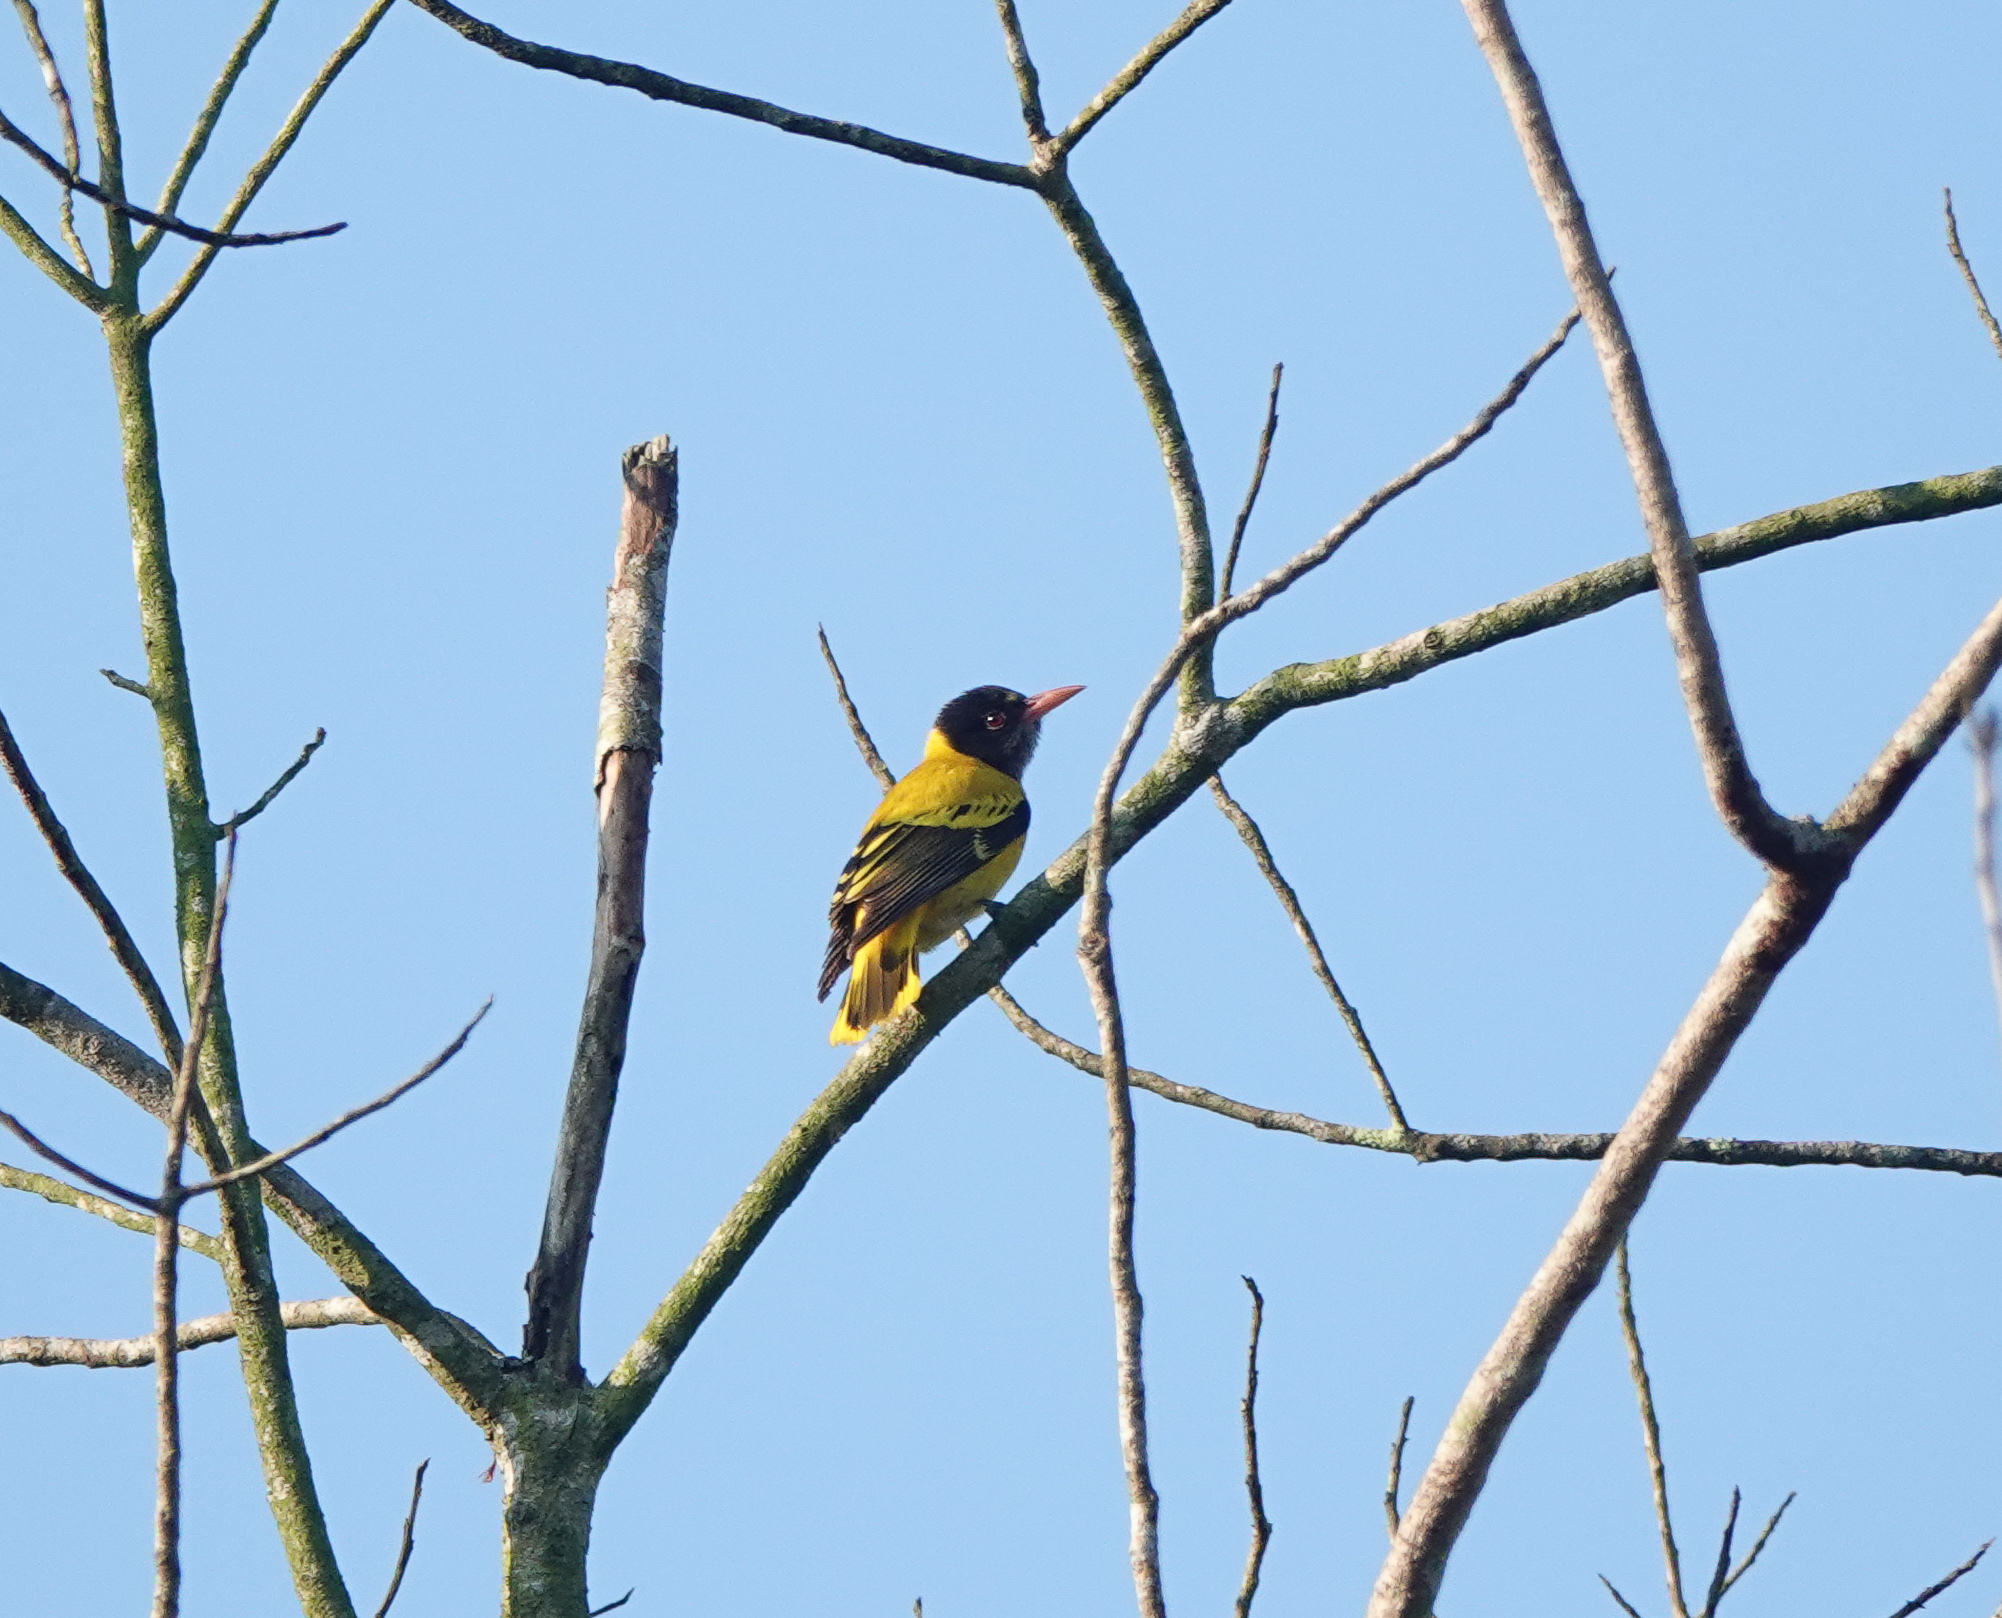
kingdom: Animalia
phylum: Chordata
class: Aves
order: Passeriformes
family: Oriolidae
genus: Oriolus
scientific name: Oriolus xanthornus
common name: Black-hooded oriole
